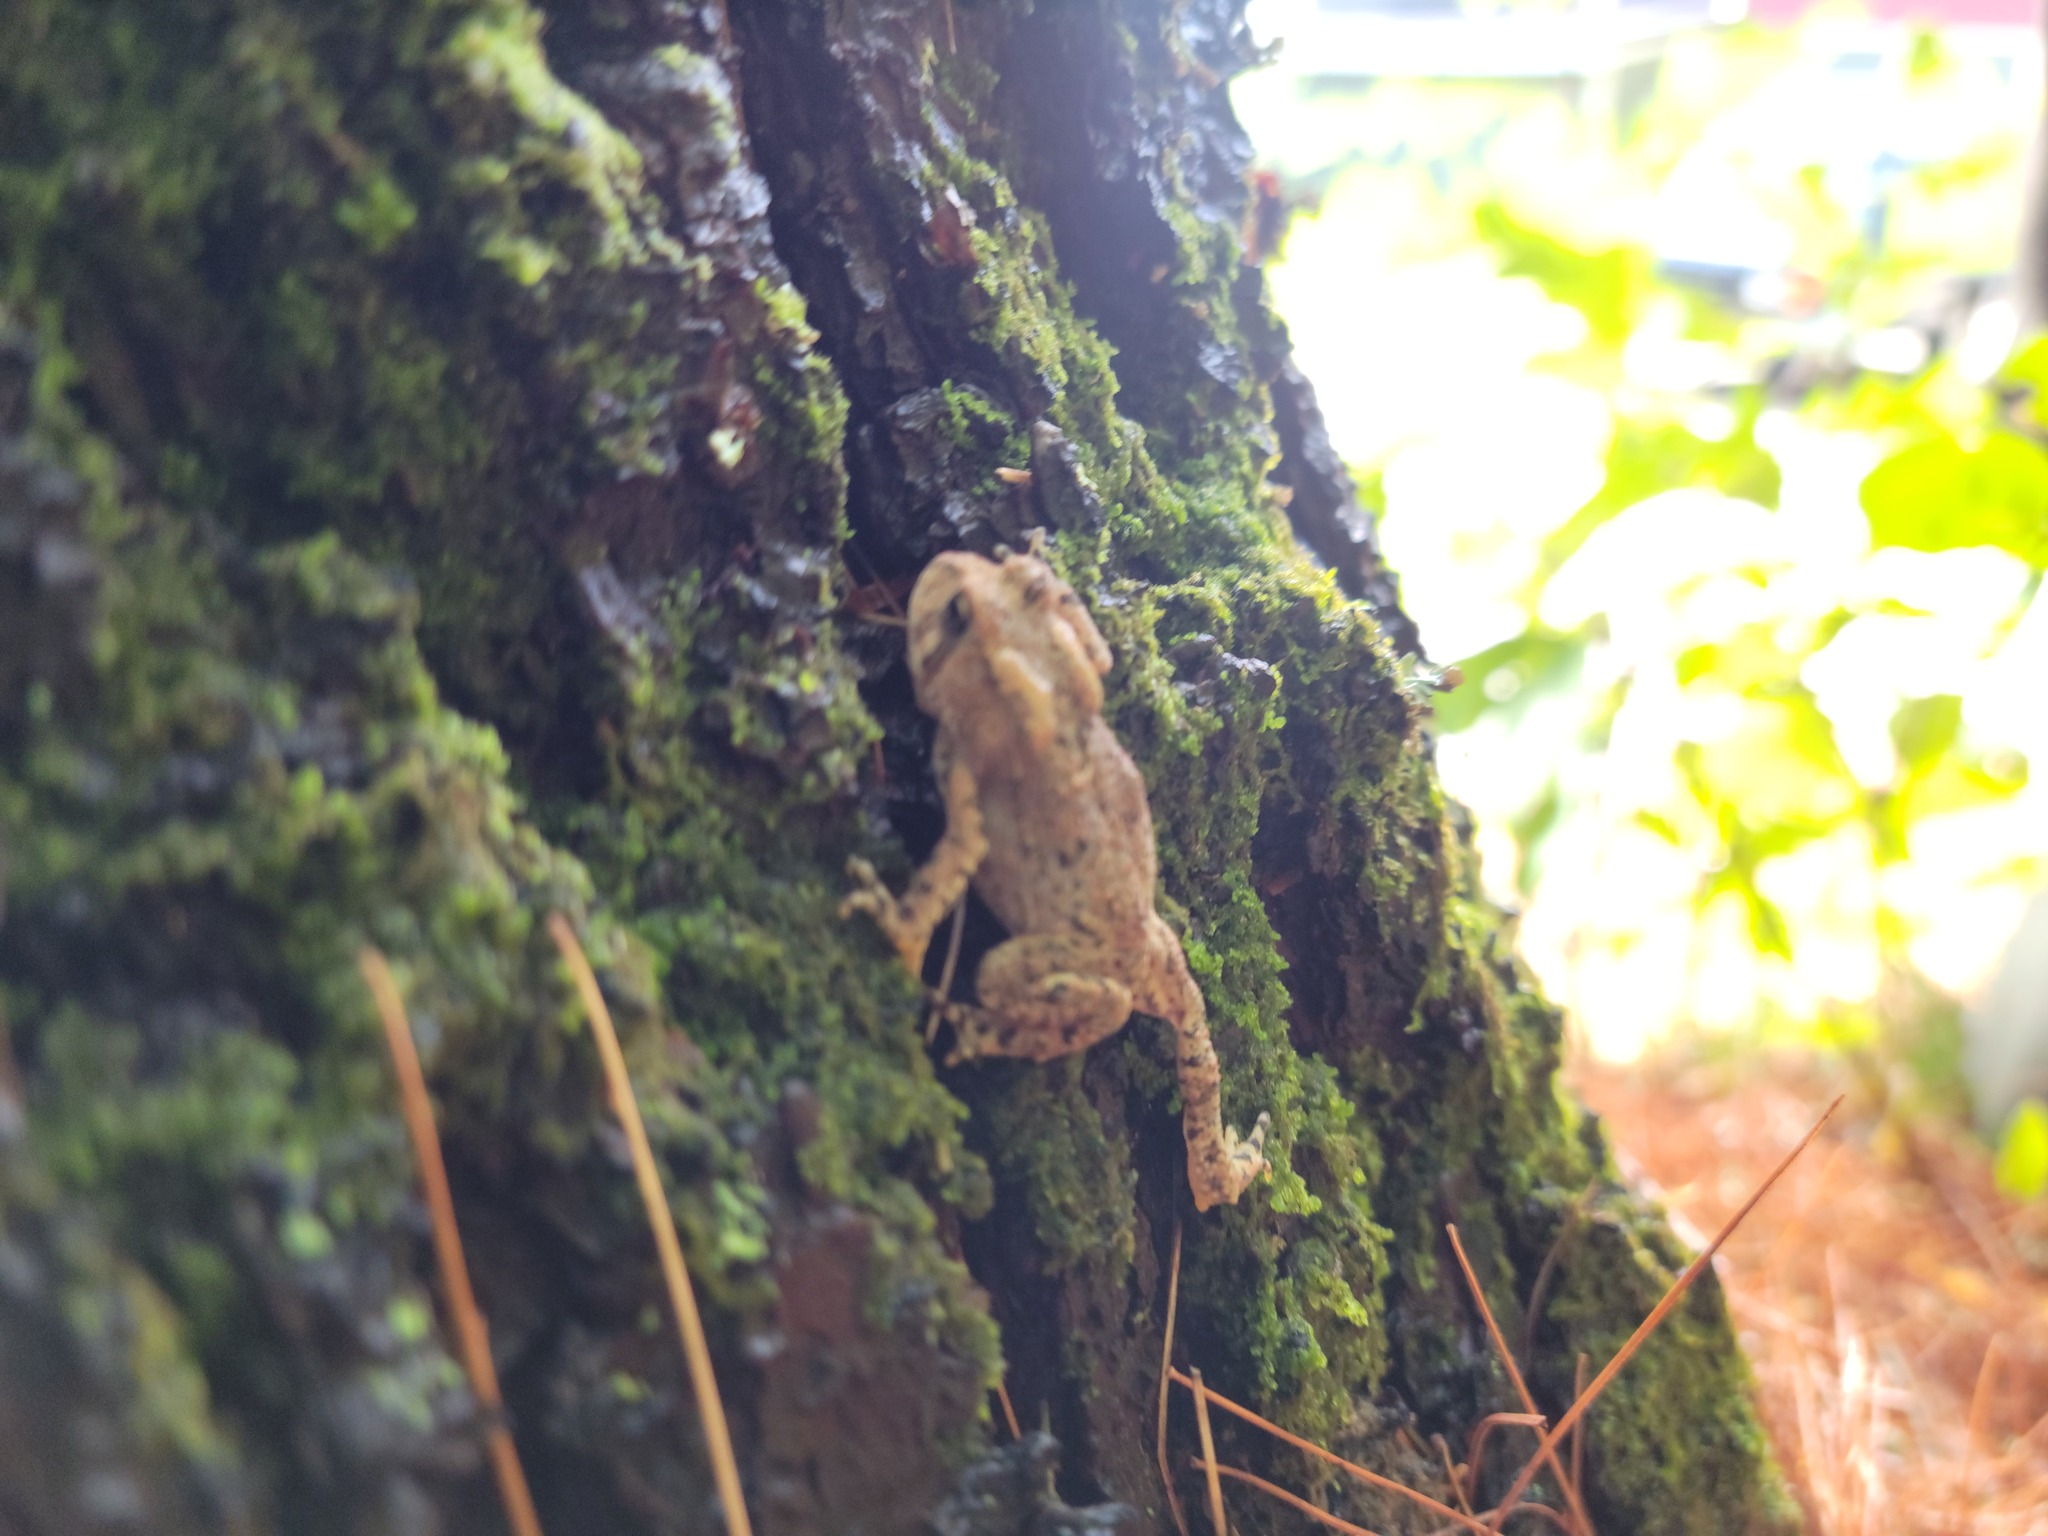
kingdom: Animalia
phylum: Chordata
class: Amphibia
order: Anura
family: Bufonidae
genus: Anaxyrus
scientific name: Anaxyrus americanus
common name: American toad
